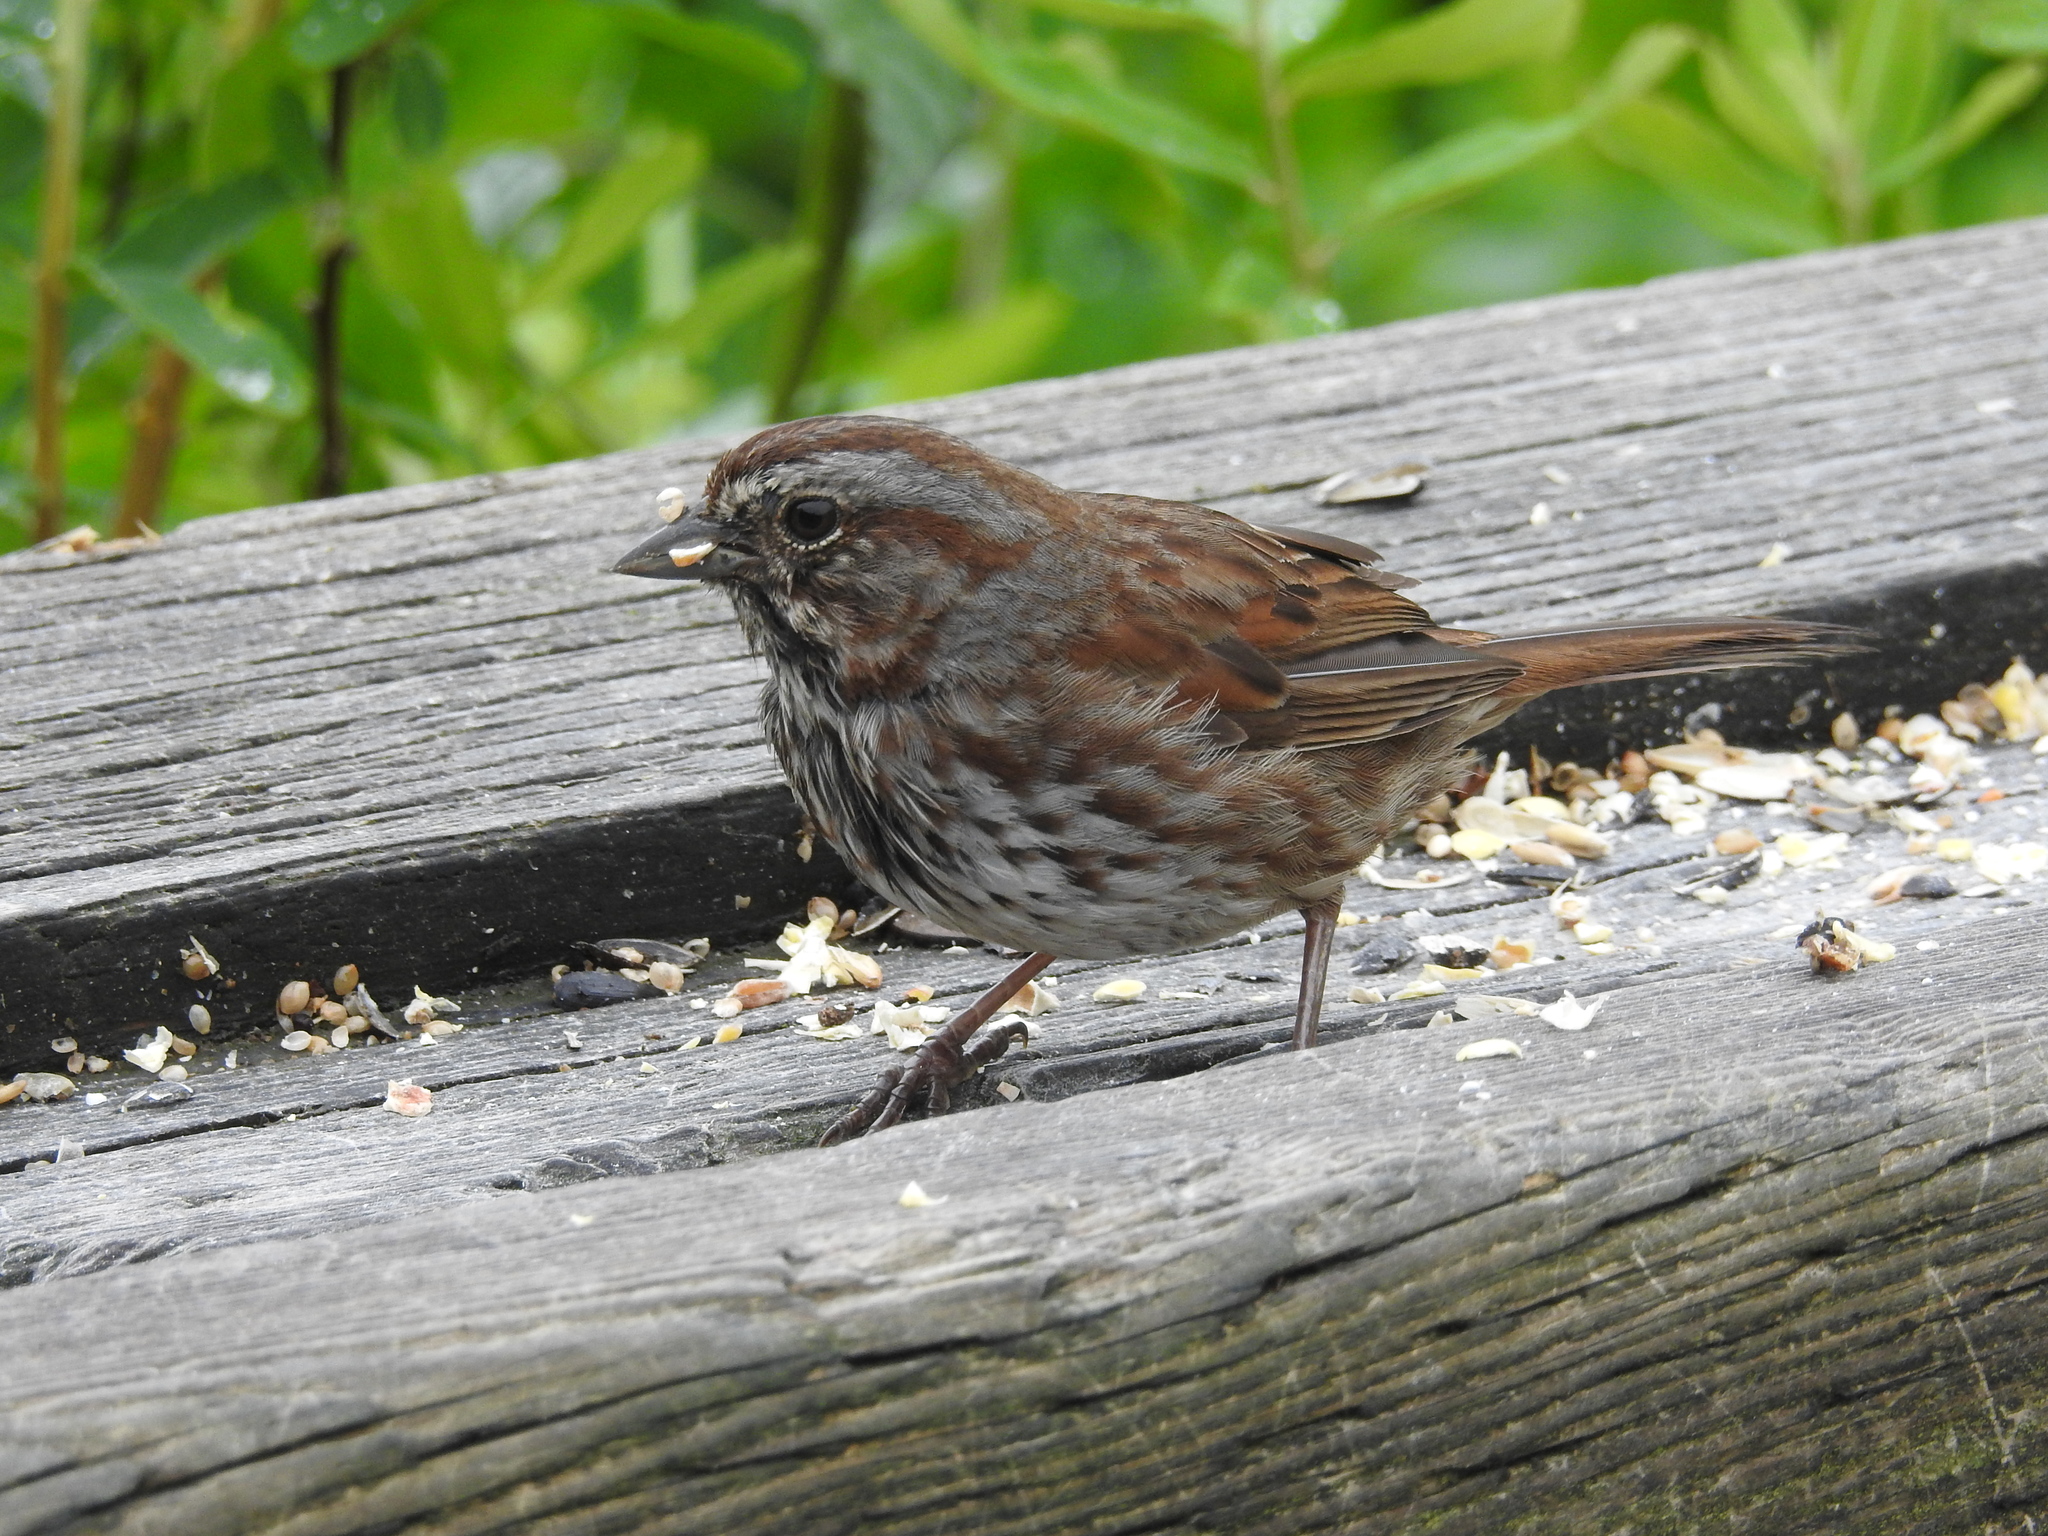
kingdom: Animalia
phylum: Chordata
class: Aves
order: Passeriformes
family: Passerellidae
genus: Melospiza
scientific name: Melospiza melodia
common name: Song sparrow
